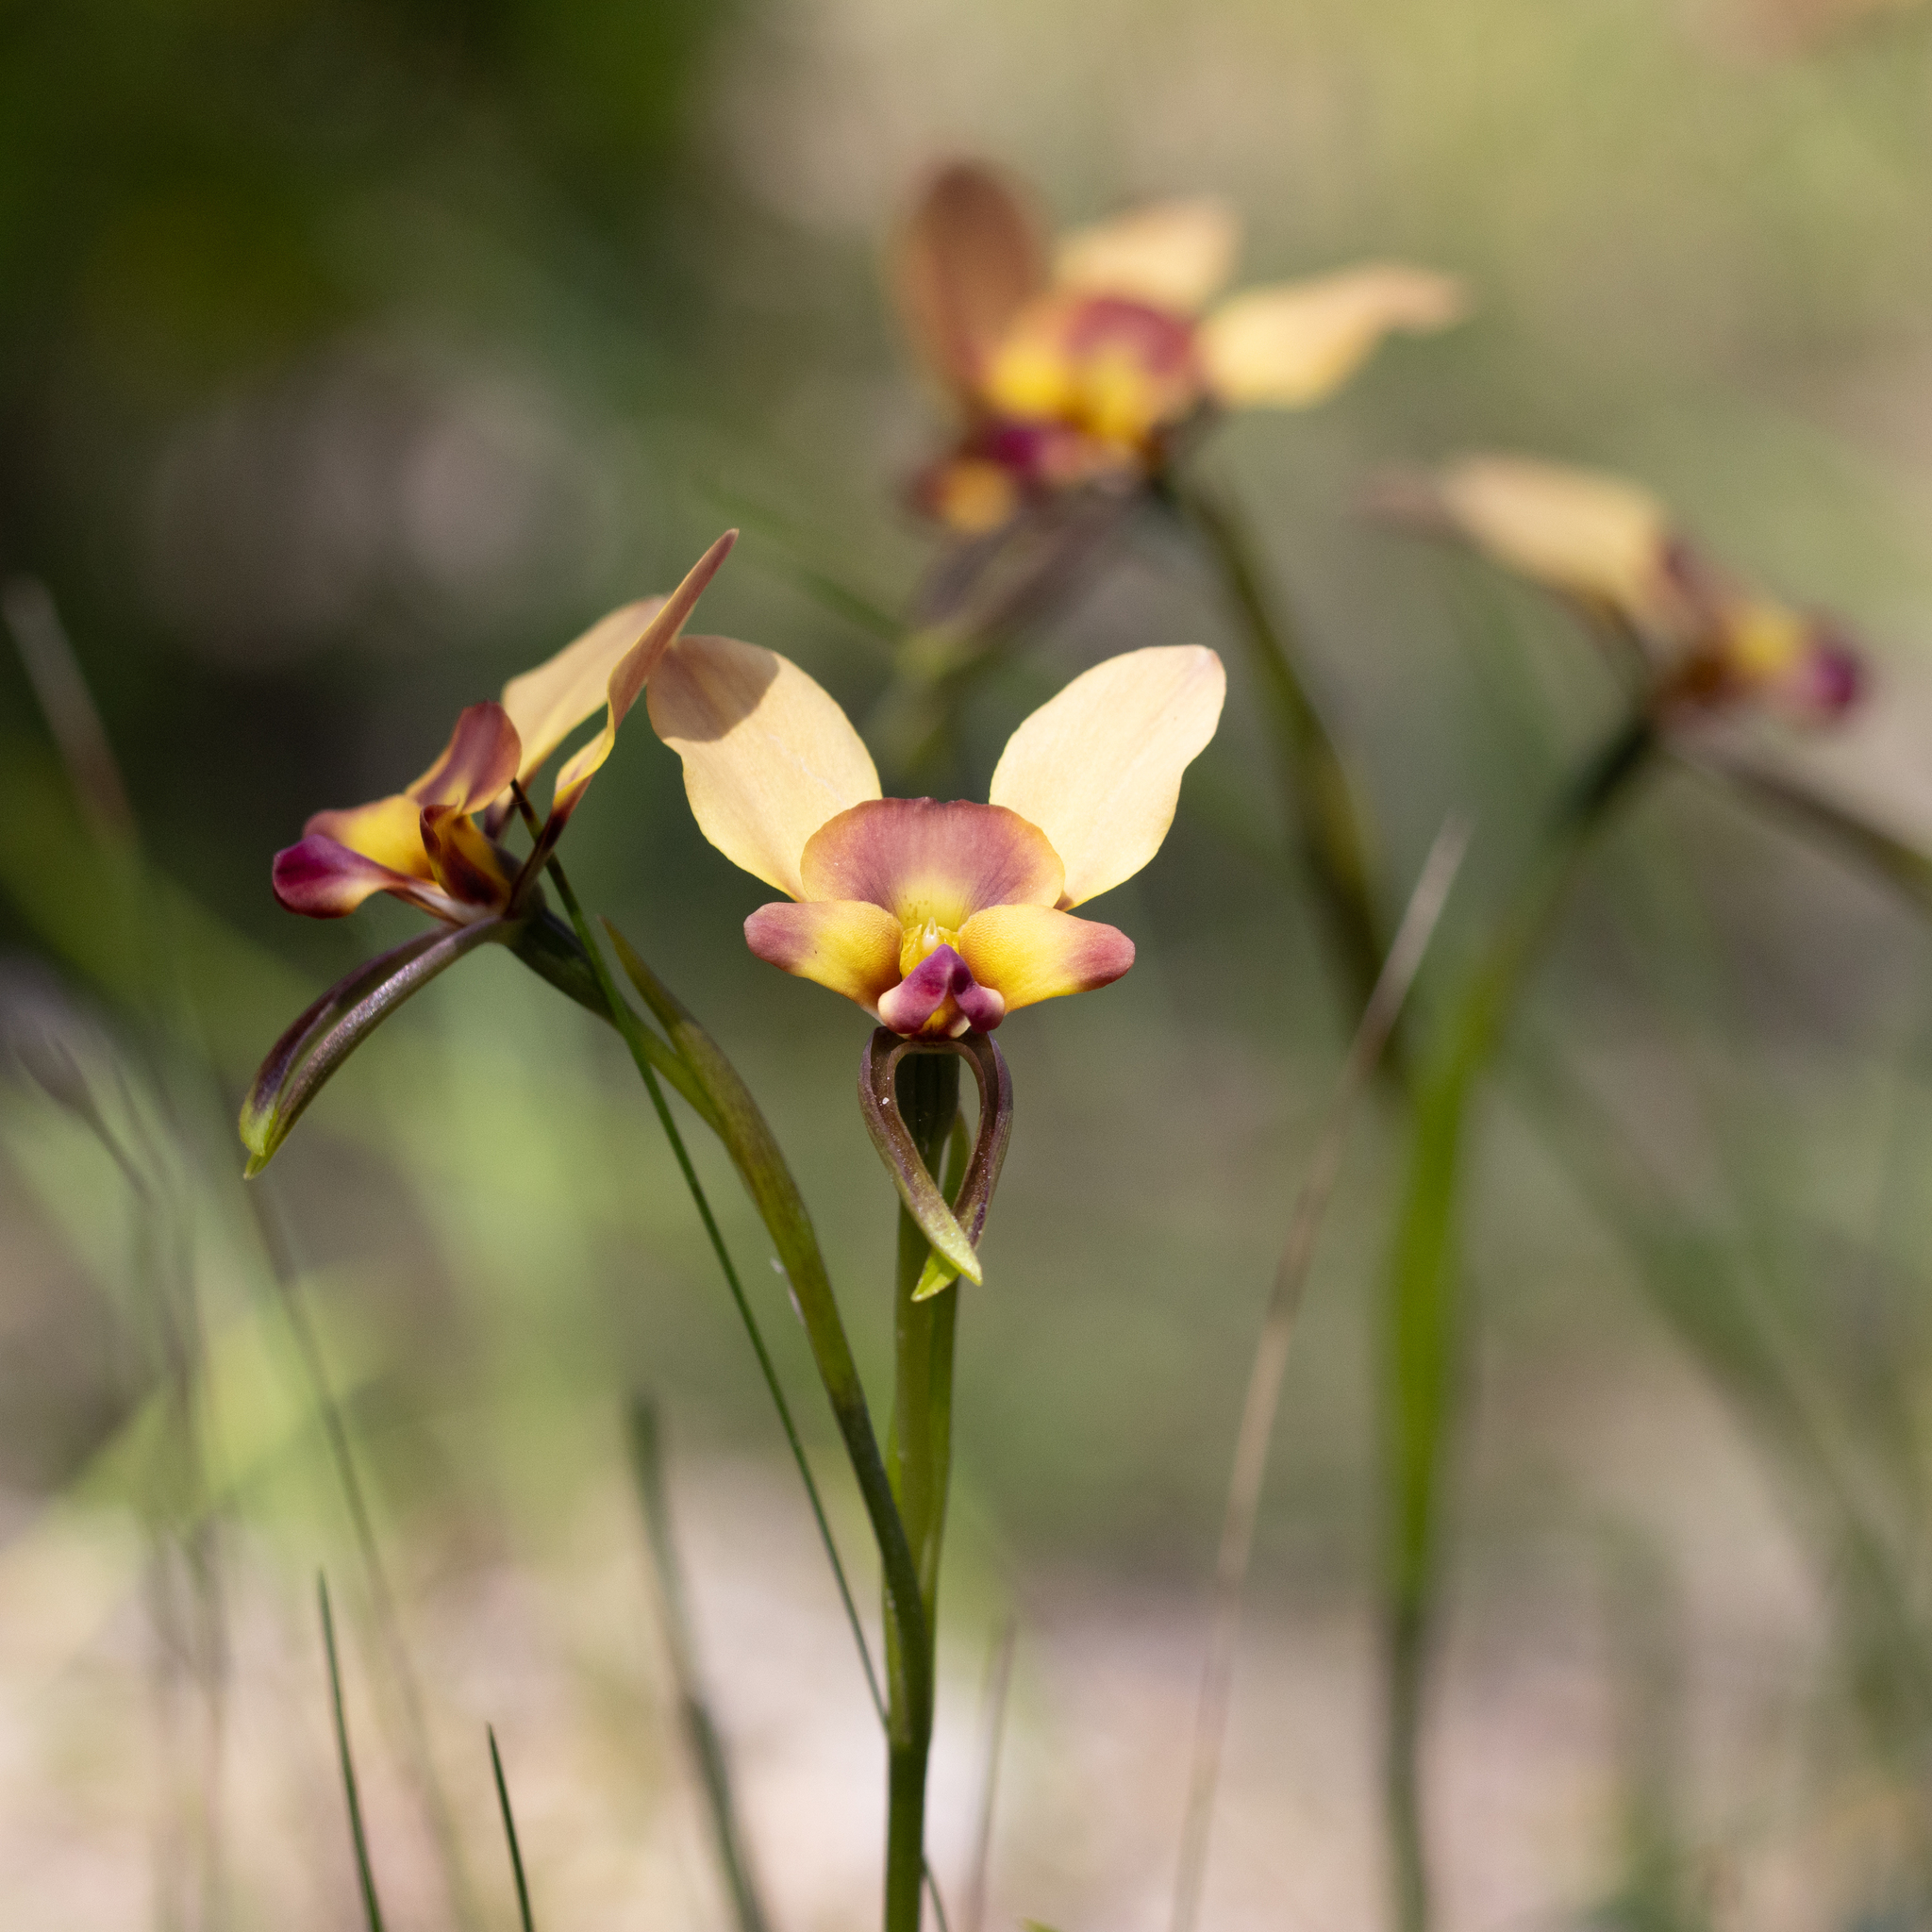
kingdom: Plantae
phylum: Tracheophyta
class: Liliopsida
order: Asparagales
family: Orchidaceae
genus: Diuris
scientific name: Diuris orientis
